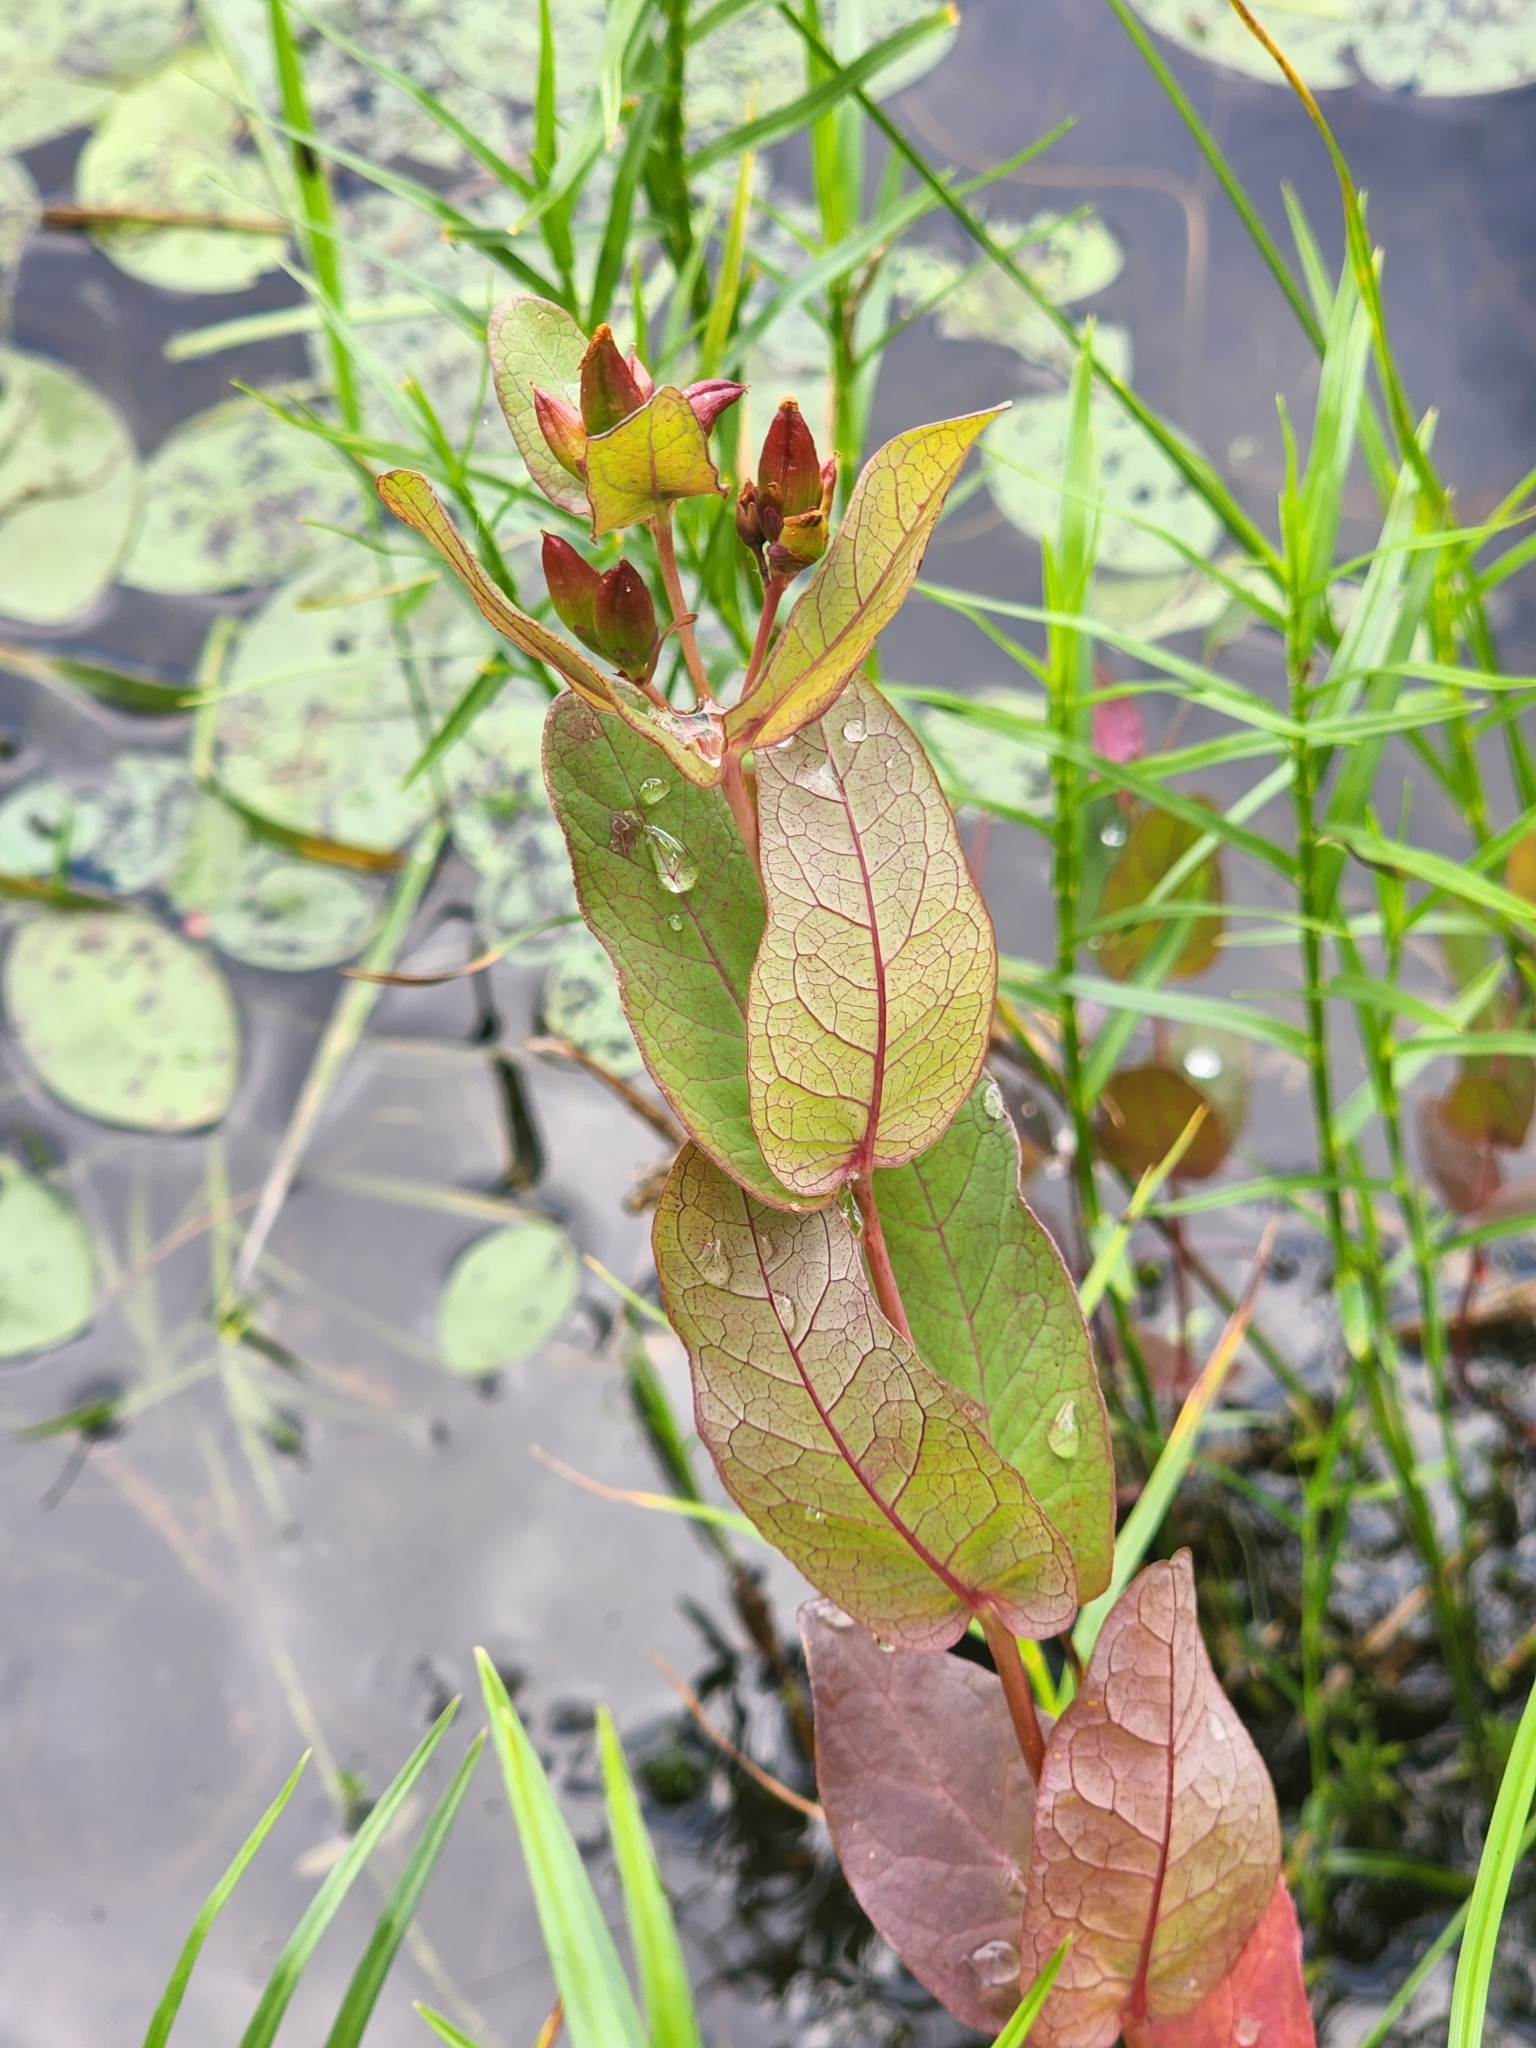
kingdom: Plantae
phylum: Tracheophyta
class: Magnoliopsida
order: Malpighiales
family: Hypericaceae
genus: Triadenum
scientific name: Triadenum fraseri
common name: Fraser's marsh st. johnswort
